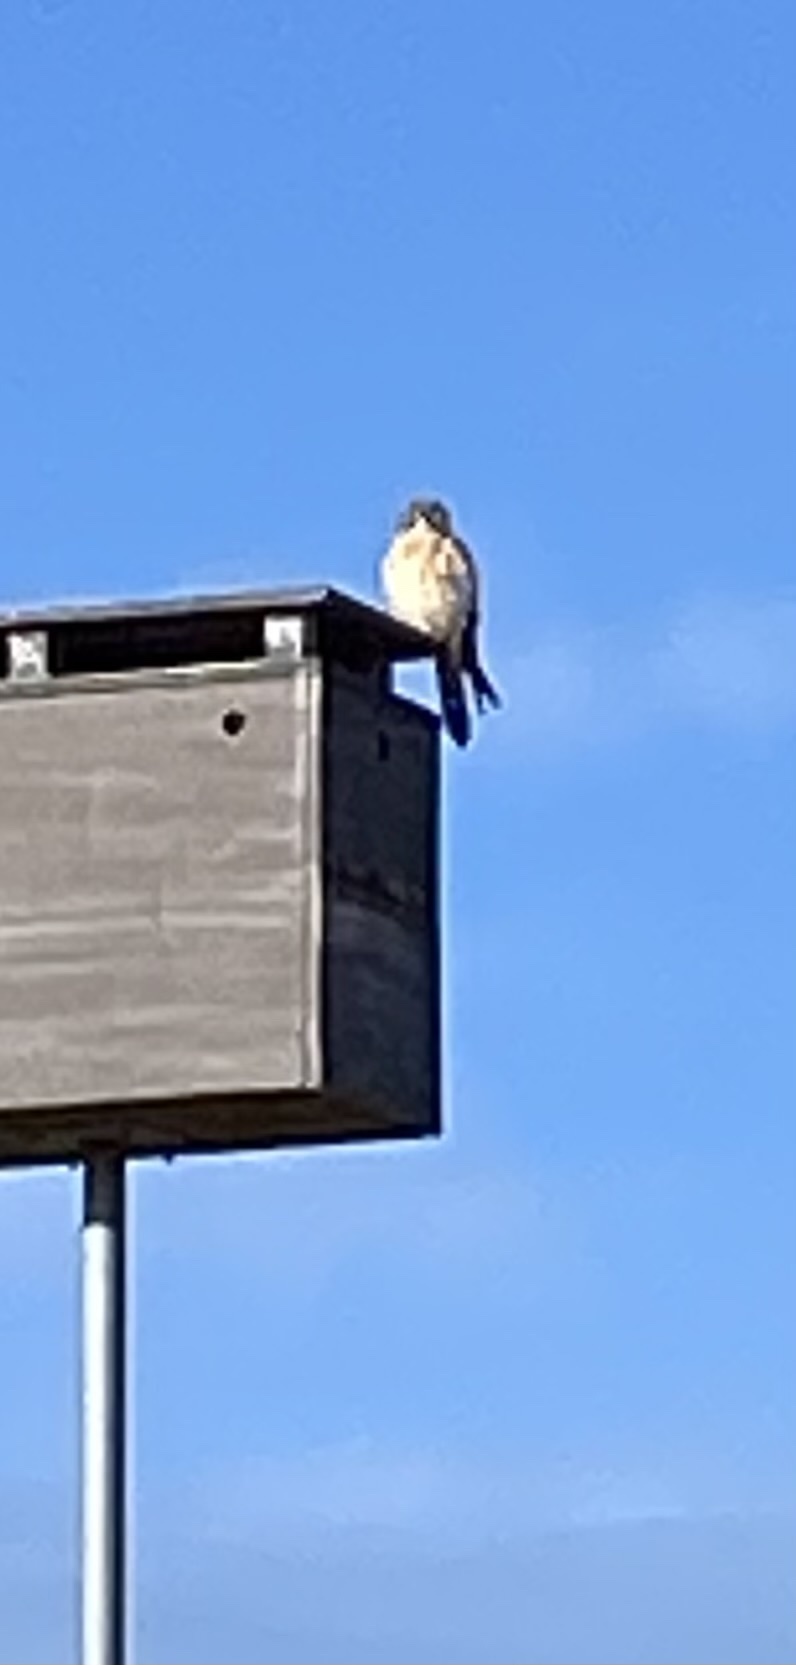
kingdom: Animalia
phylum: Chordata
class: Aves
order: Falconiformes
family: Falconidae
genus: Falco
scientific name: Falco sparverius
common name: American kestrel
